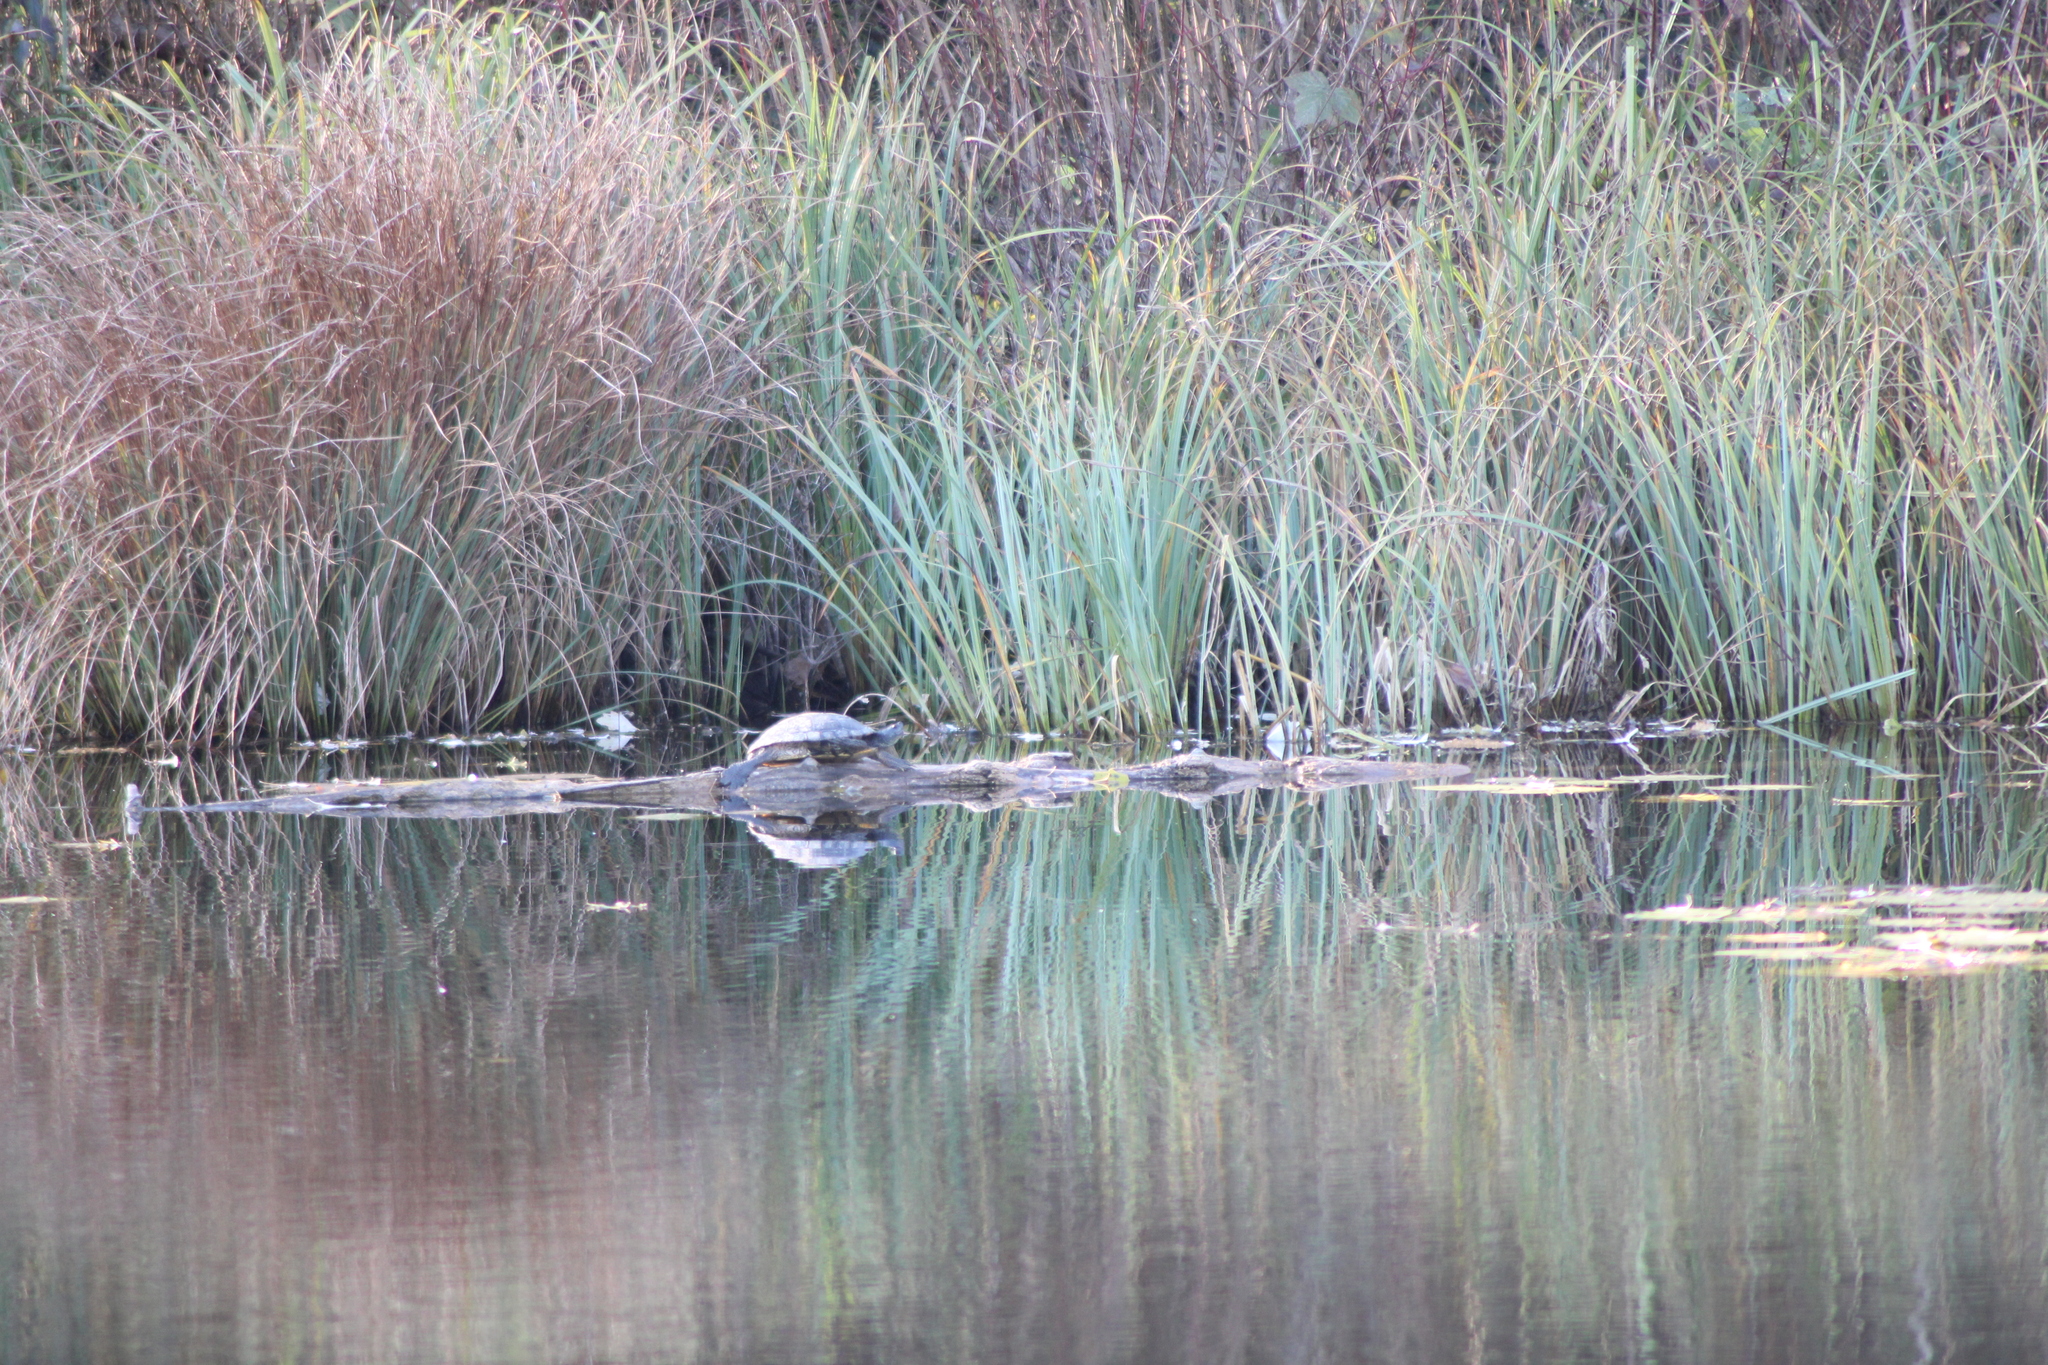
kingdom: Animalia
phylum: Chordata
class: Testudines
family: Emydidae
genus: Trachemys
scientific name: Trachemys scripta
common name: Slider
